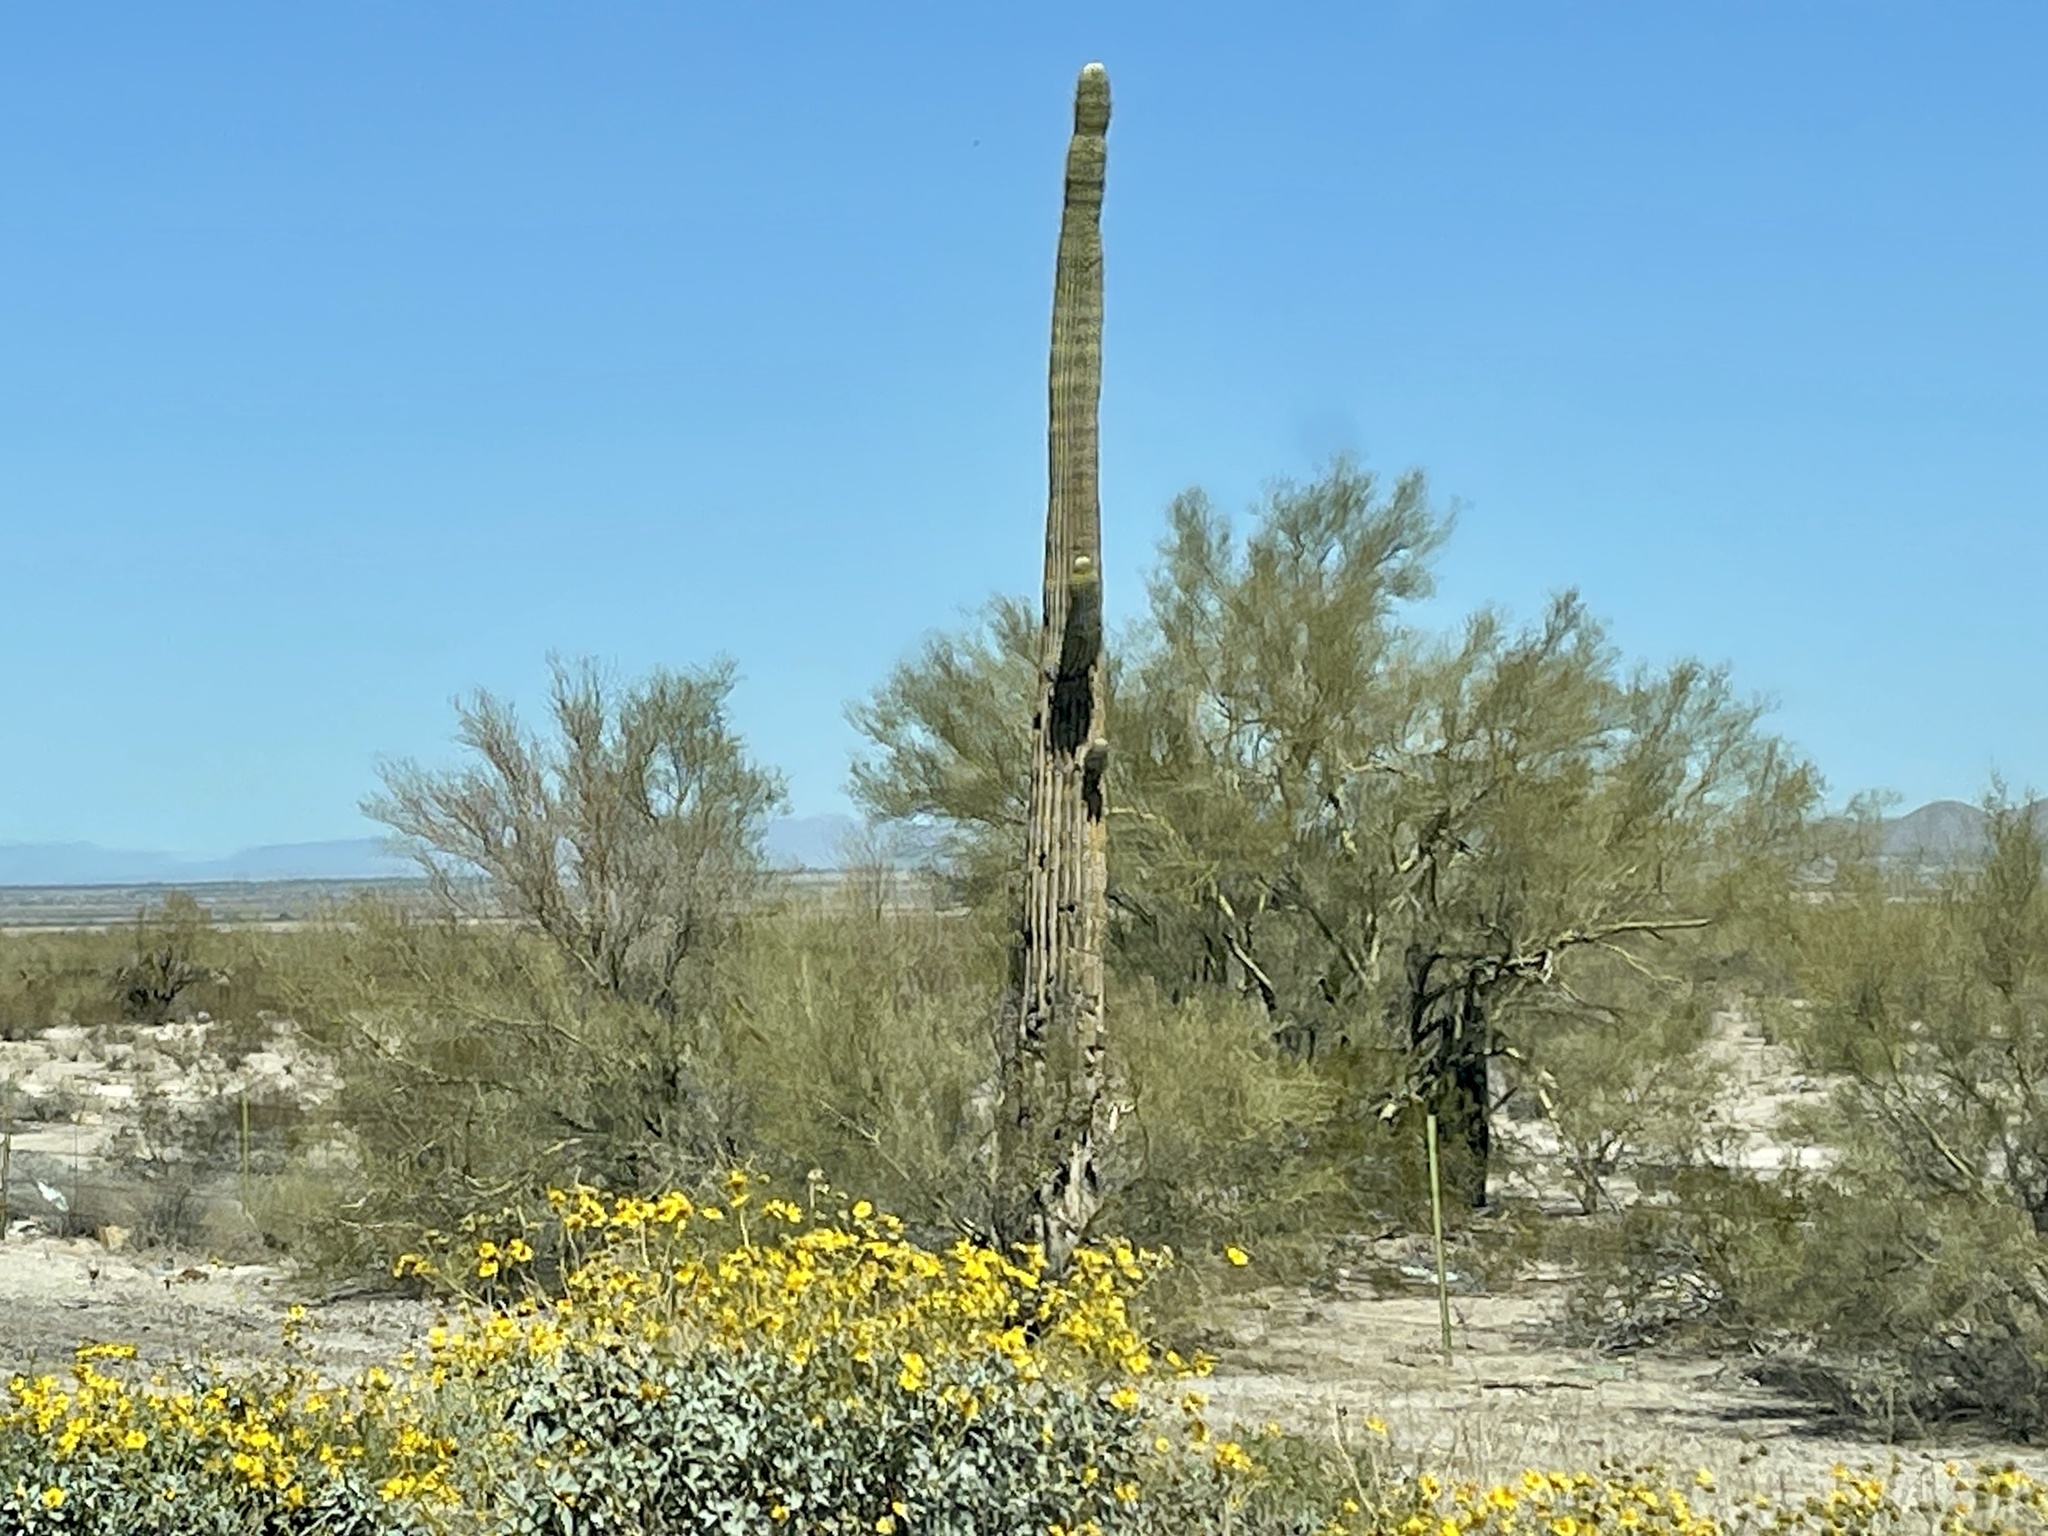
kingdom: Plantae
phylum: Tracheophyta
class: Magnoliopsida
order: Caryophyllales
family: Cactaceae
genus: Carnegiea
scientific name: Carnegiea gigantea
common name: Saguaro
